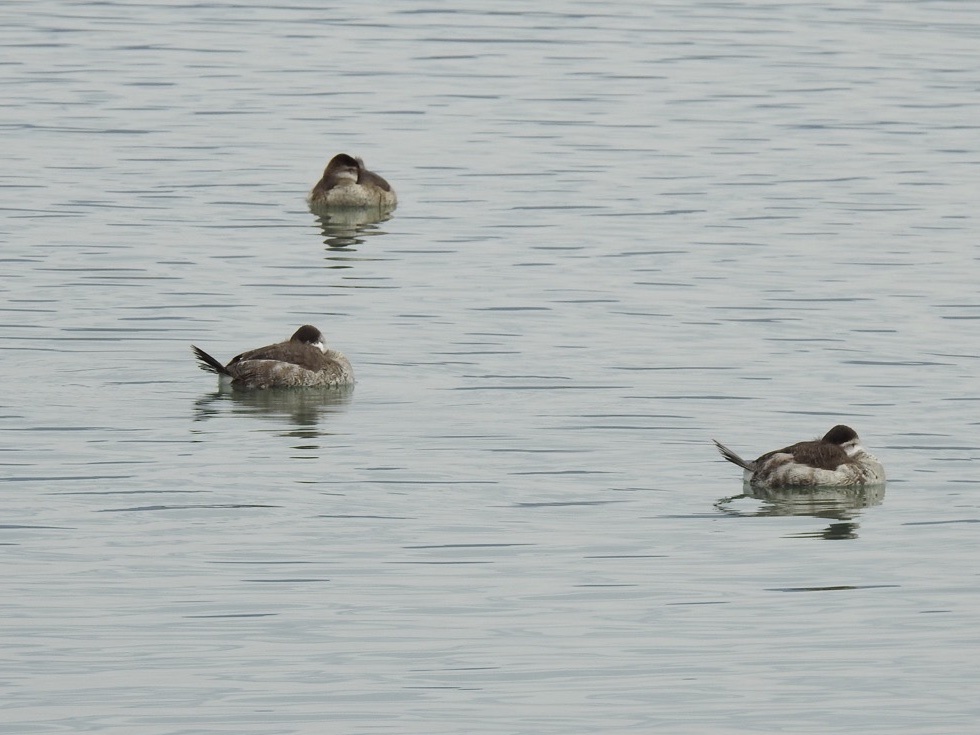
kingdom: Animalia
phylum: Chordata
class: Aves
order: Anseriformes
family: Anatidae
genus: Oxyura
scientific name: Oxyura jamaicensis
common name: Ruddy duck
